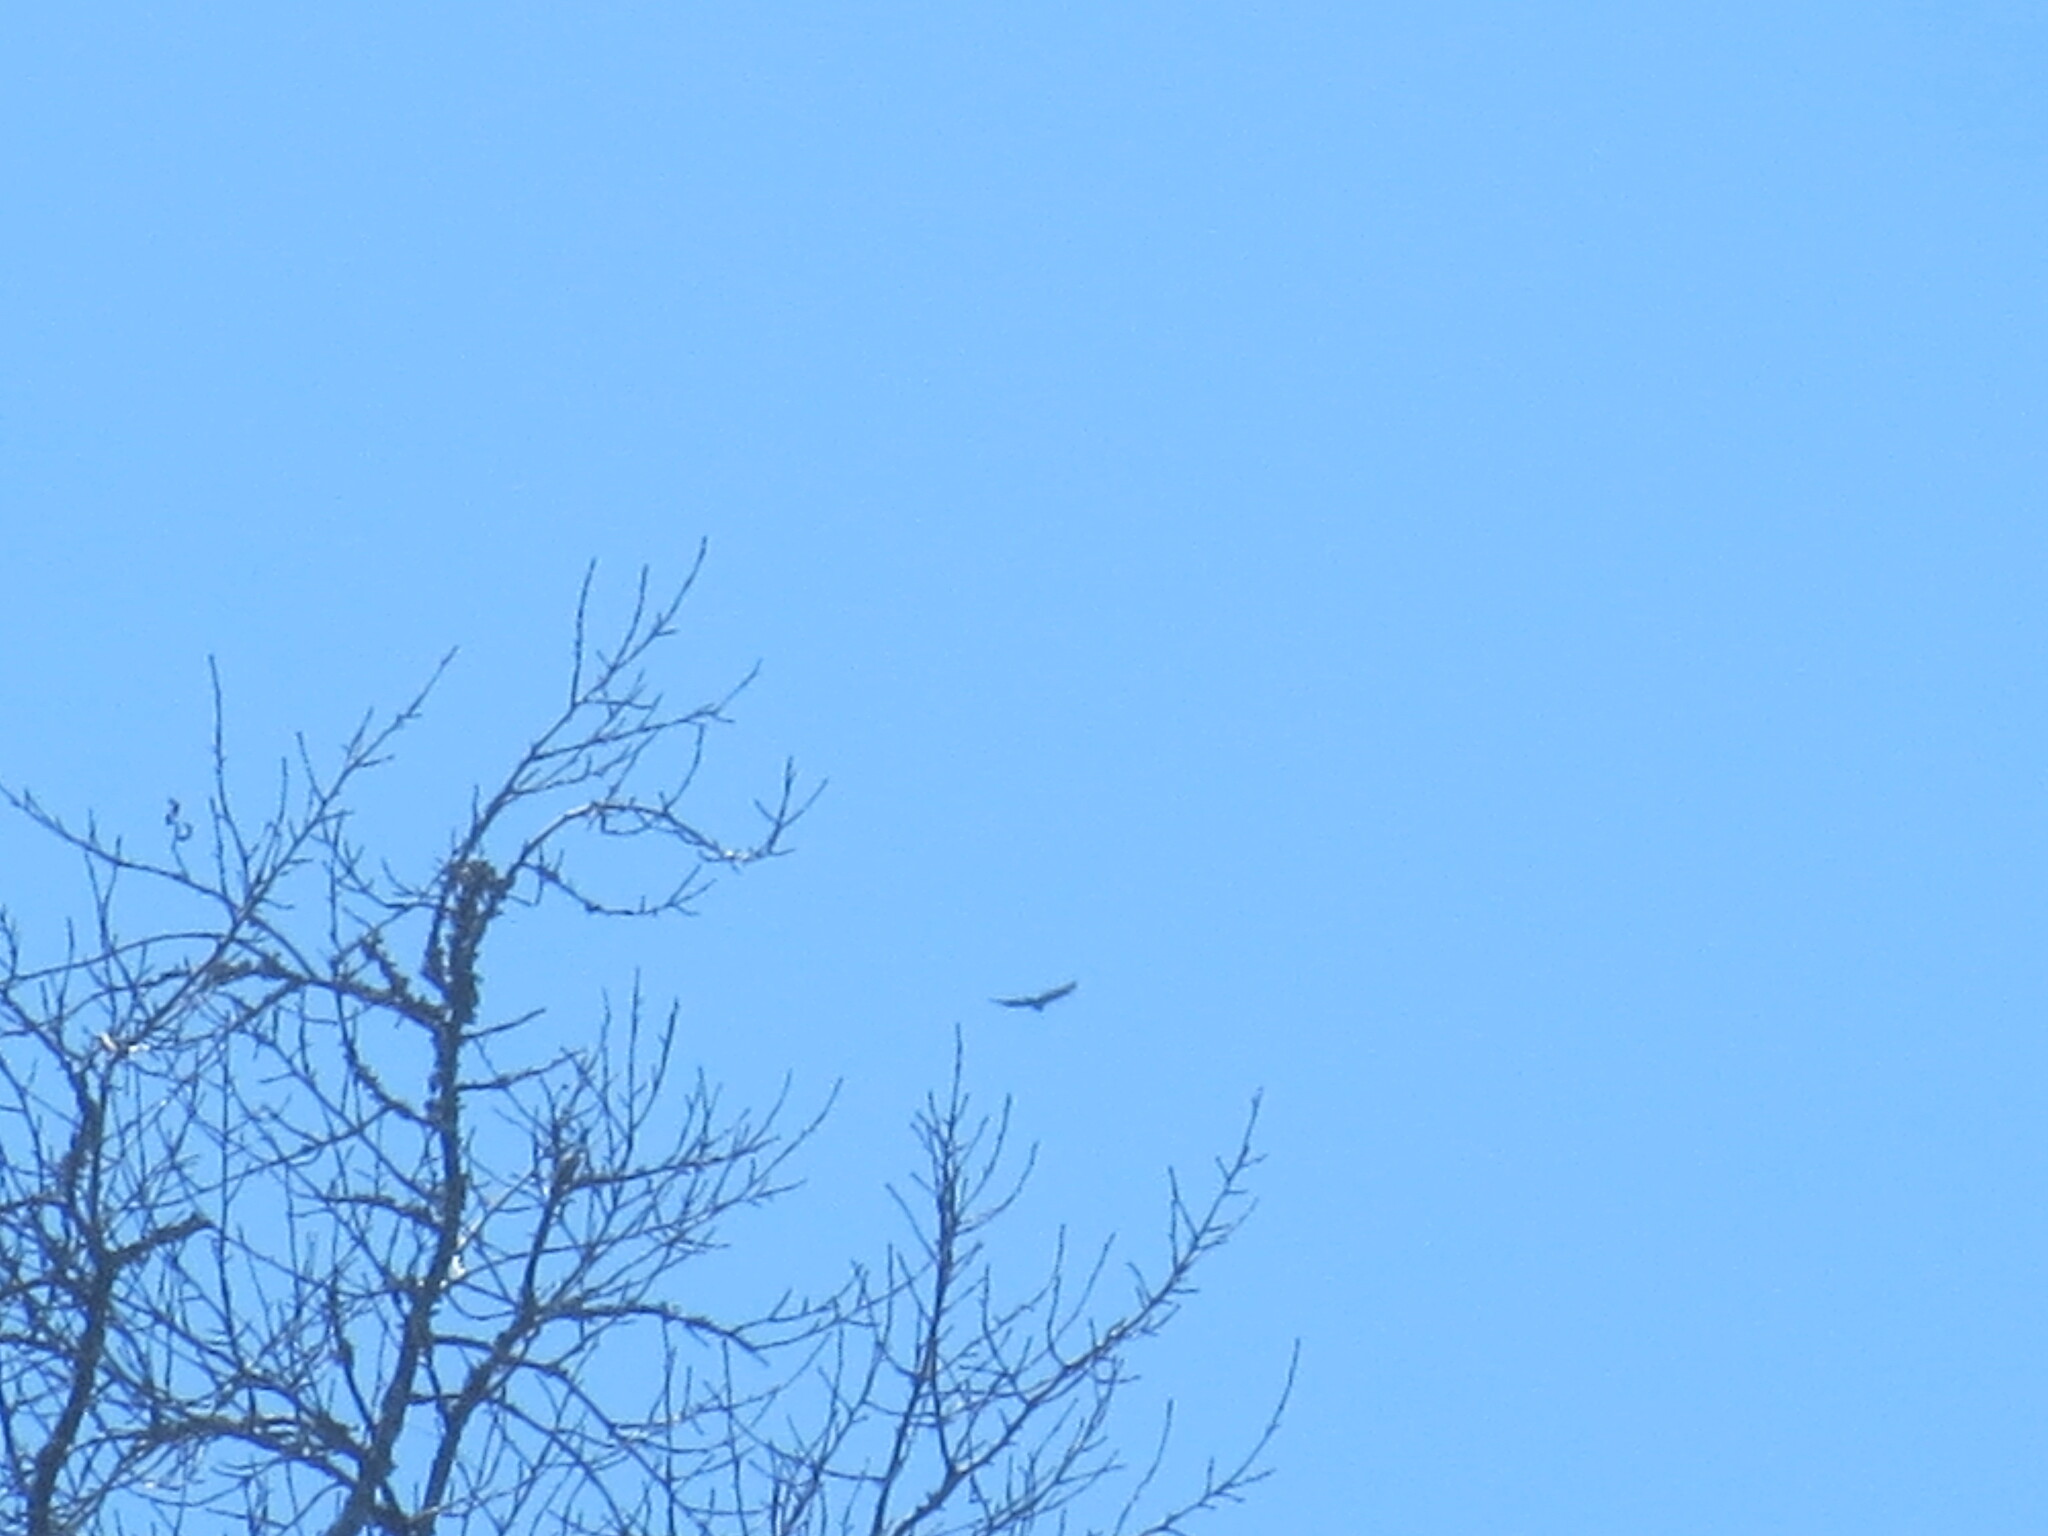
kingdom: Animalia
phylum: Chordata
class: Aves
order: Accipitriformes
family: Cathartidae
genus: Cathartes
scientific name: Cathartes aura
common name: Turkey vulture
